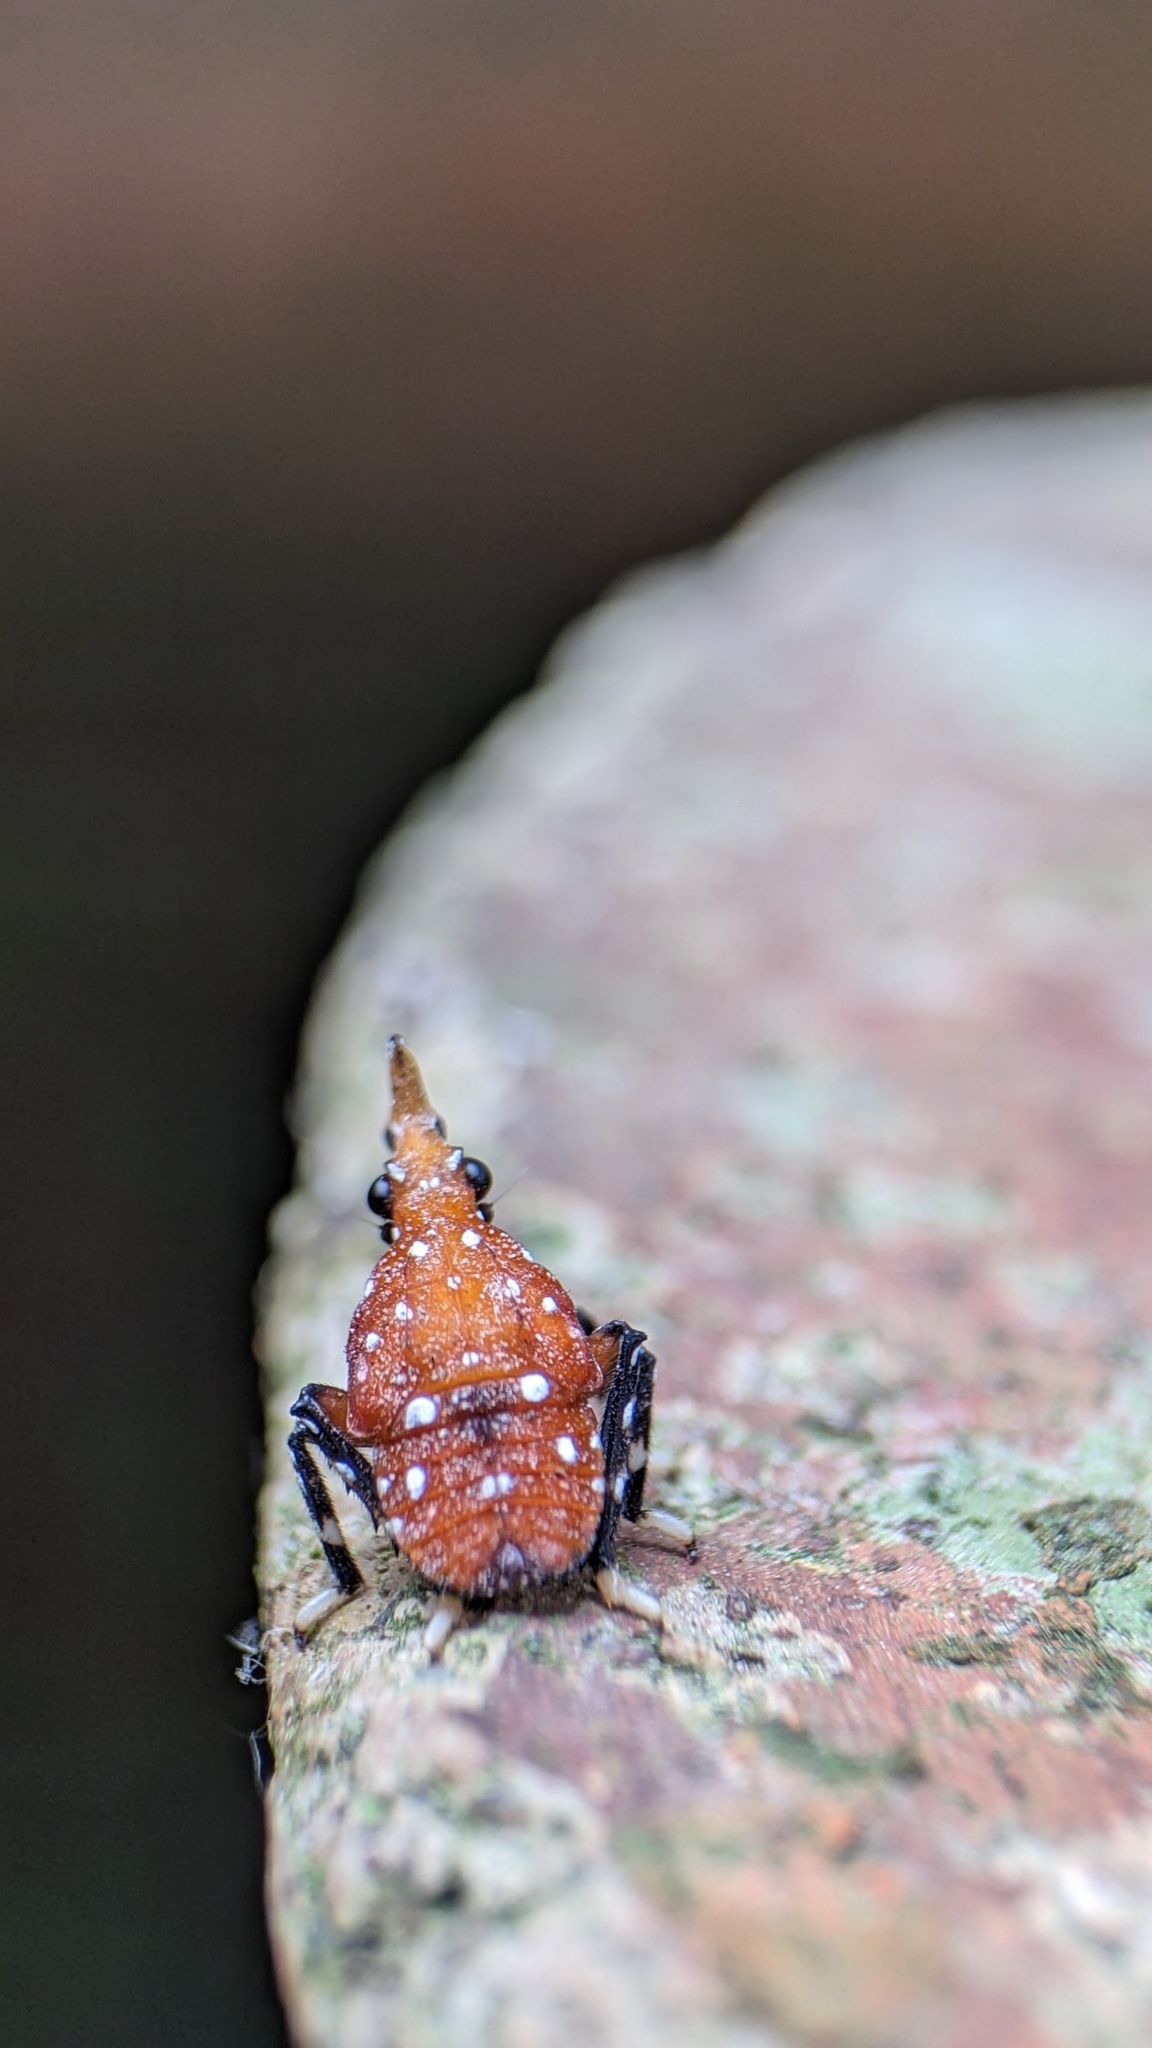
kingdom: Animalia
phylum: Arthropoda
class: Insecta
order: Hemiptera
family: Fulgoridae
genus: Kalidasa
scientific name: Kalidasa lanata
